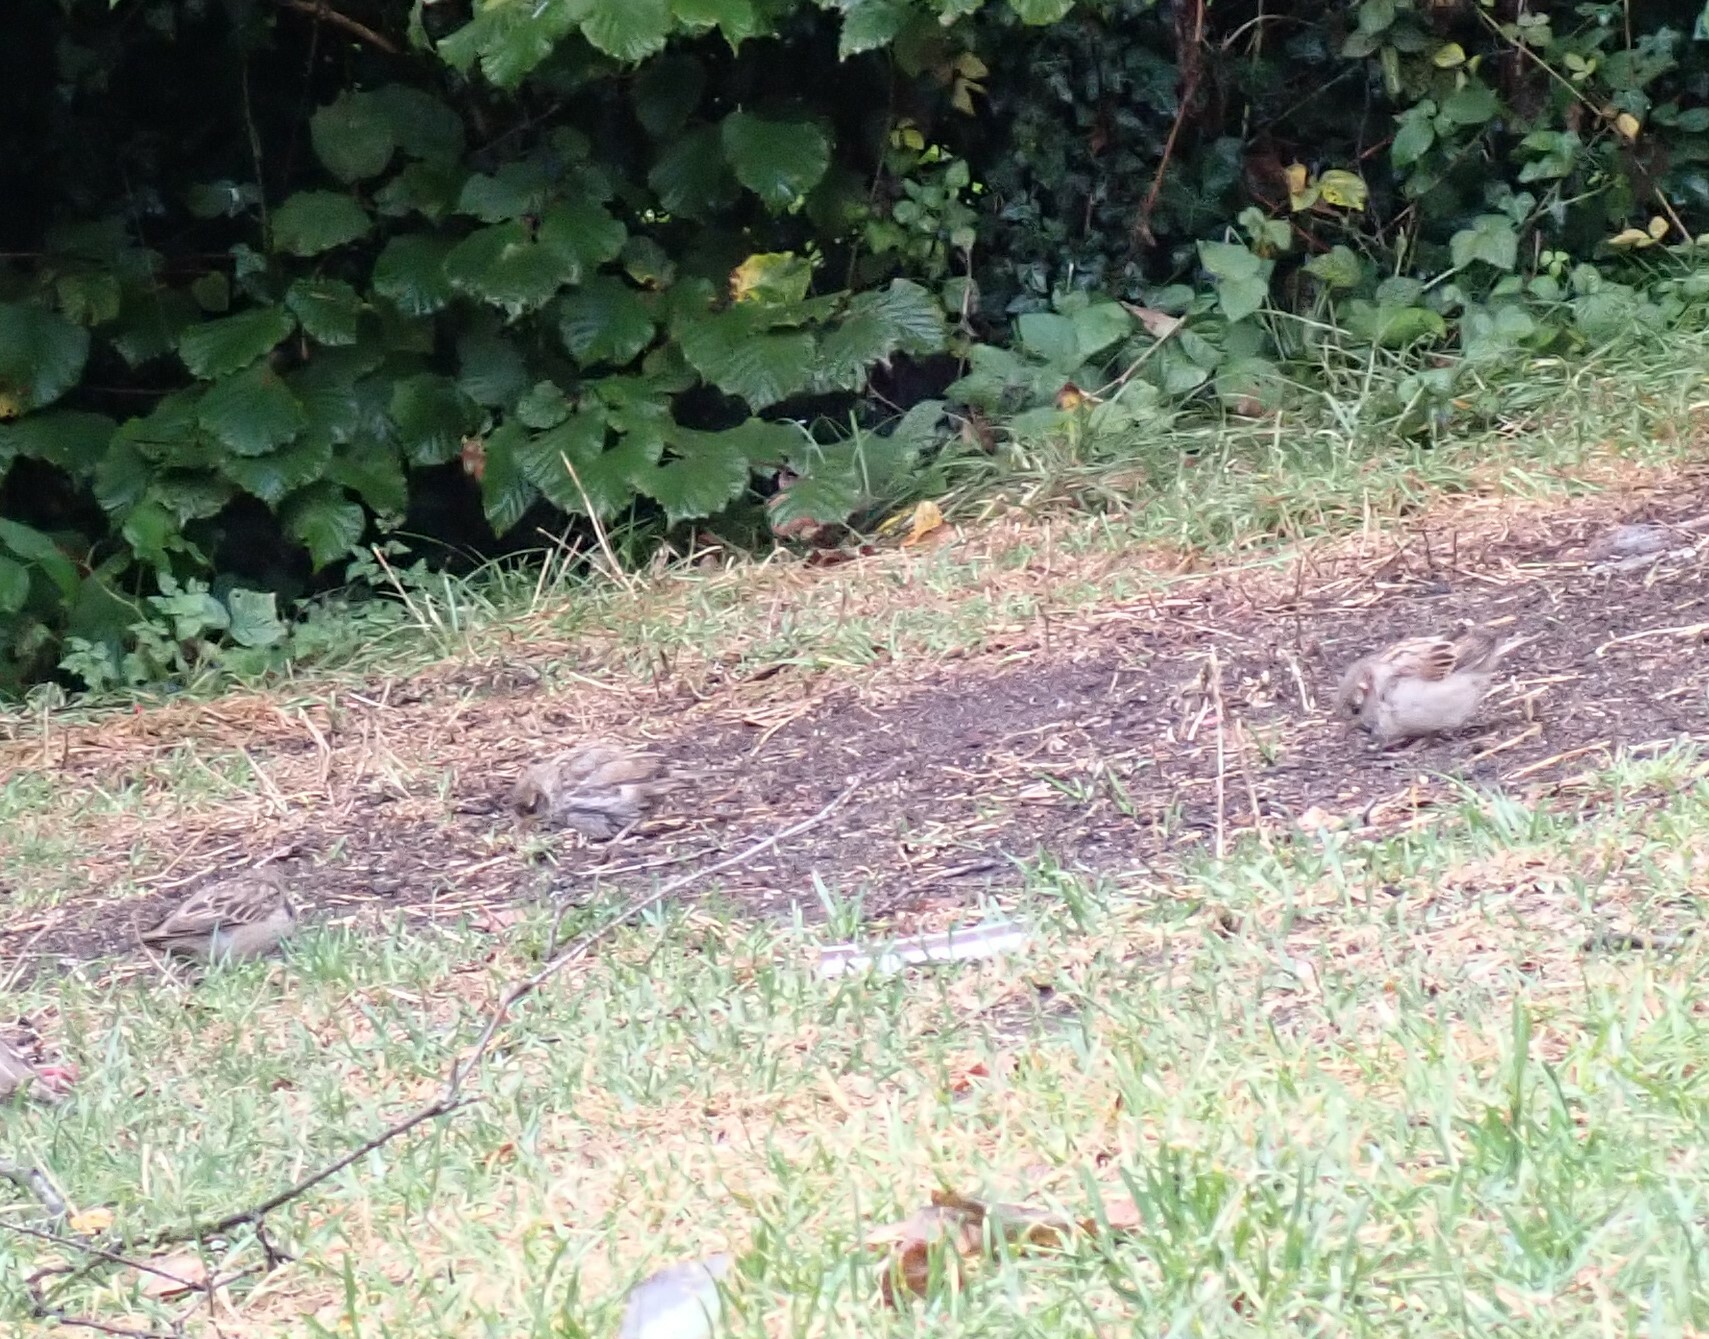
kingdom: Animalia
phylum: Chordata
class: Aves
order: Passeriformes
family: Passeridae
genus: Passer
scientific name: Passer domesticus
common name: House sparrow
